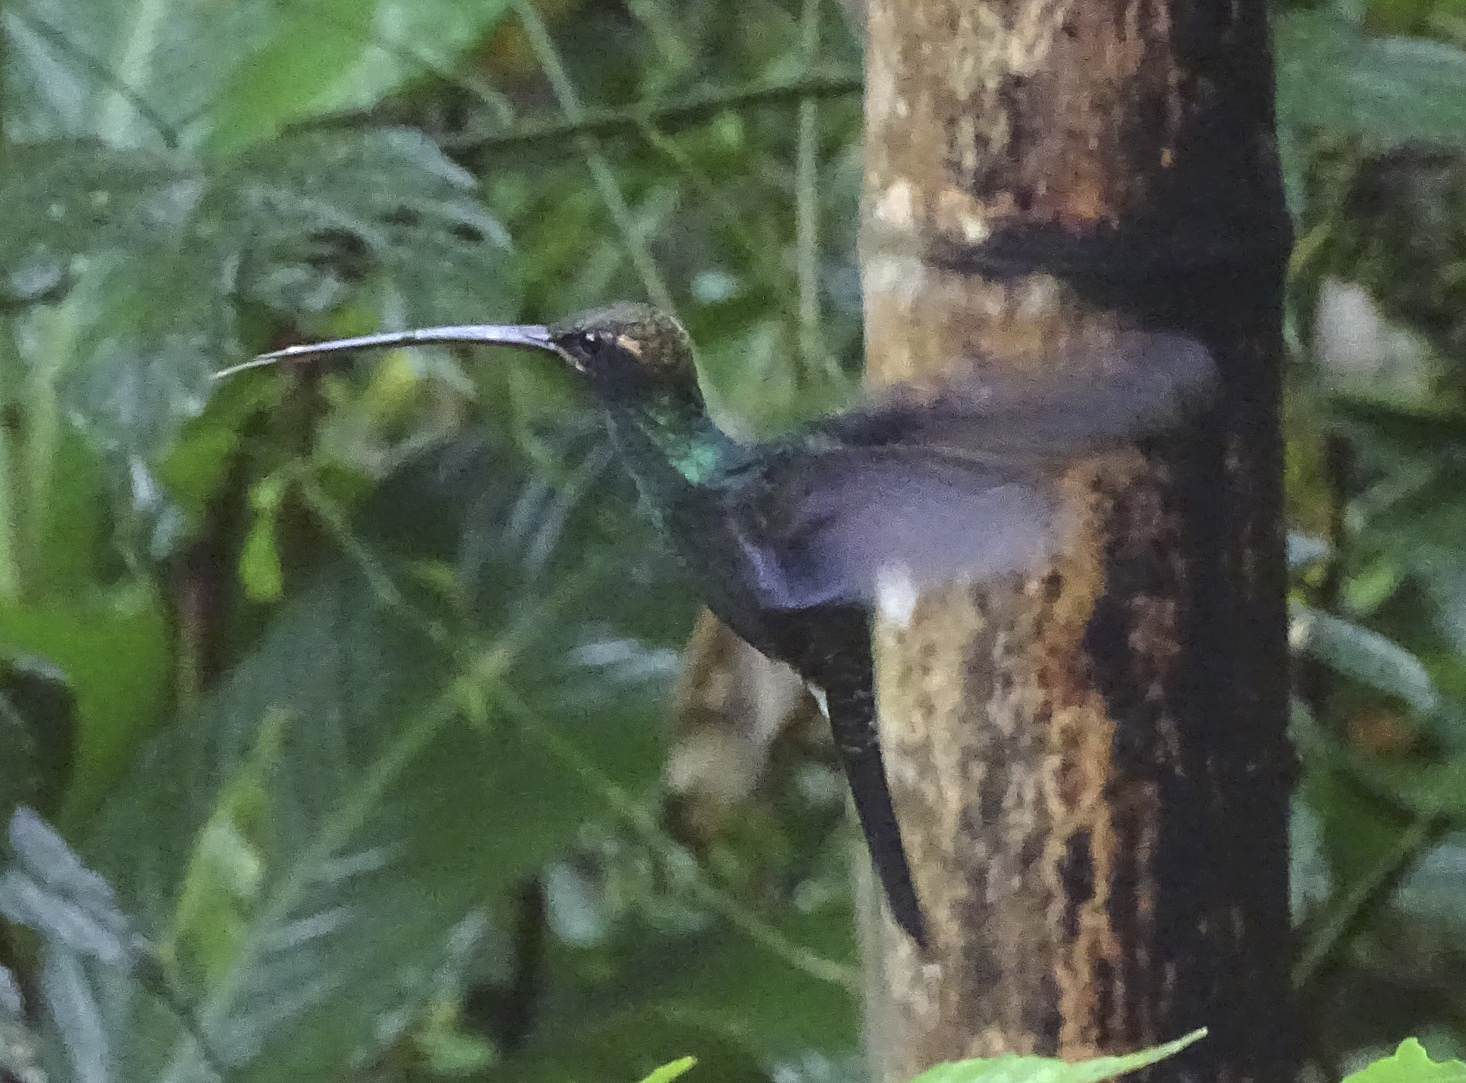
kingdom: Animalia
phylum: Chordata
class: Aves
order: Apodiformes
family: Trochilidae
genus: Phaethornis
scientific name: Phaethornis yaruqui
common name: White-whiskered hermit
